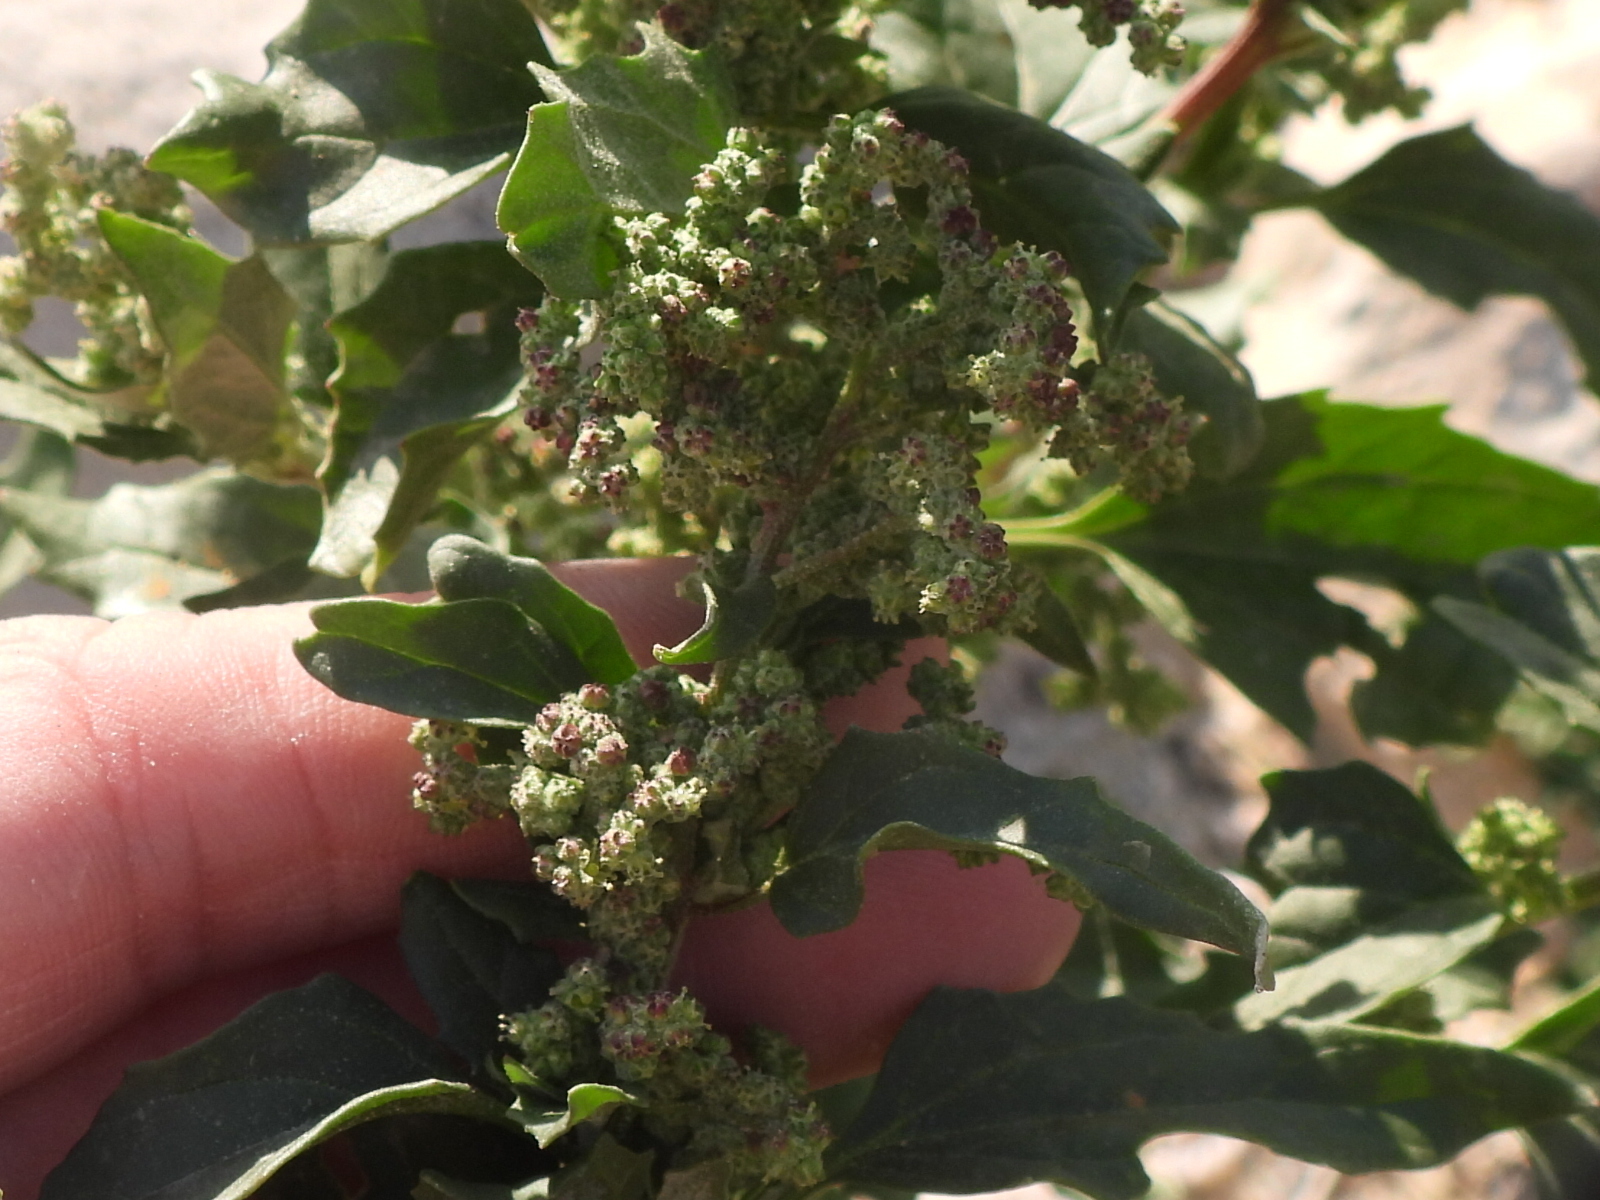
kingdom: Plantae
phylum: Tracheophyta
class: Magnoliopsida
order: Caryophyllales
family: Amaranthaceae
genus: Chenopodiastrum
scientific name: Chenopodiastrum murale
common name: Sowbane
